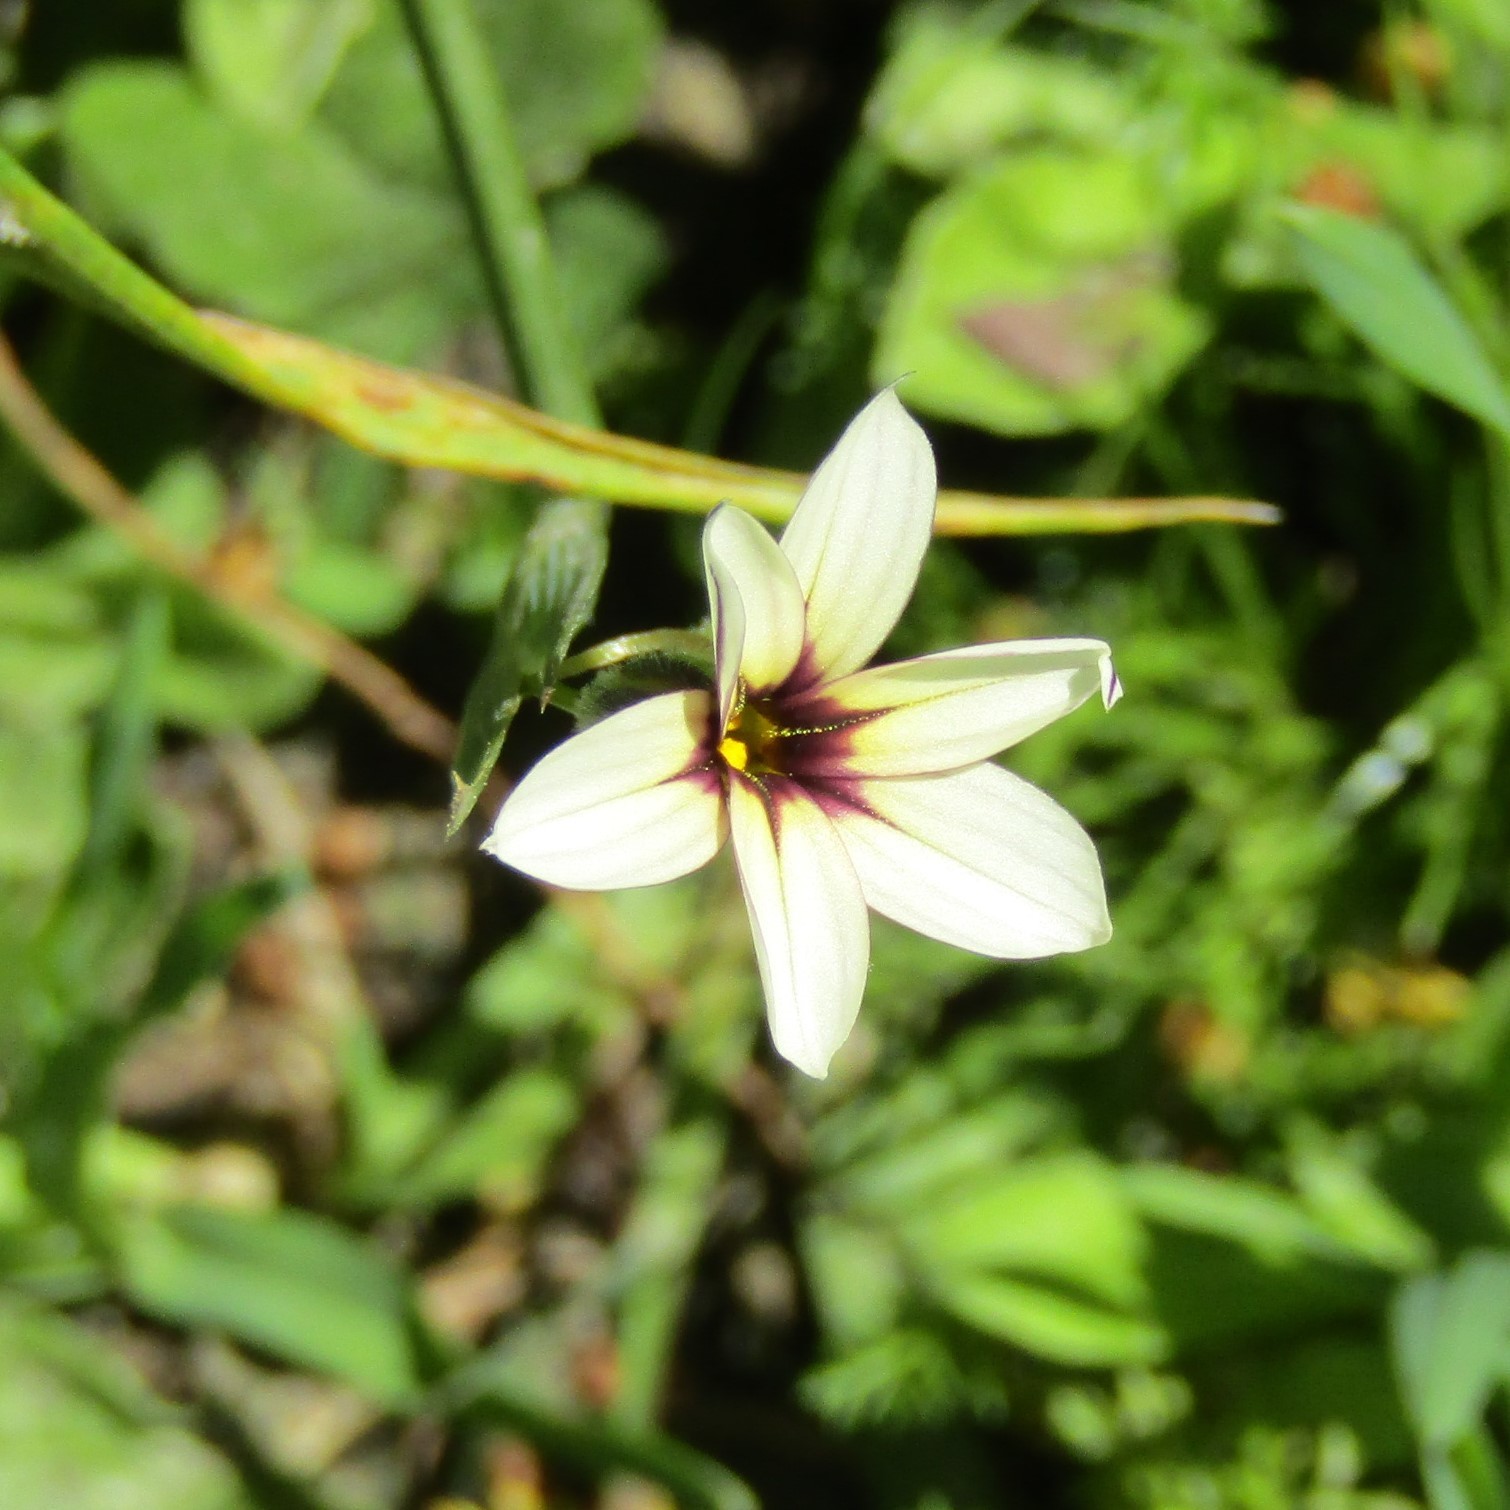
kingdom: Plantae
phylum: Tracheophyta
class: Liliopsida
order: Asparagales
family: Iridaceae
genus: Sisyrinchium
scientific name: Sisyrinchium micranthum
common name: Bermuda pigroot
